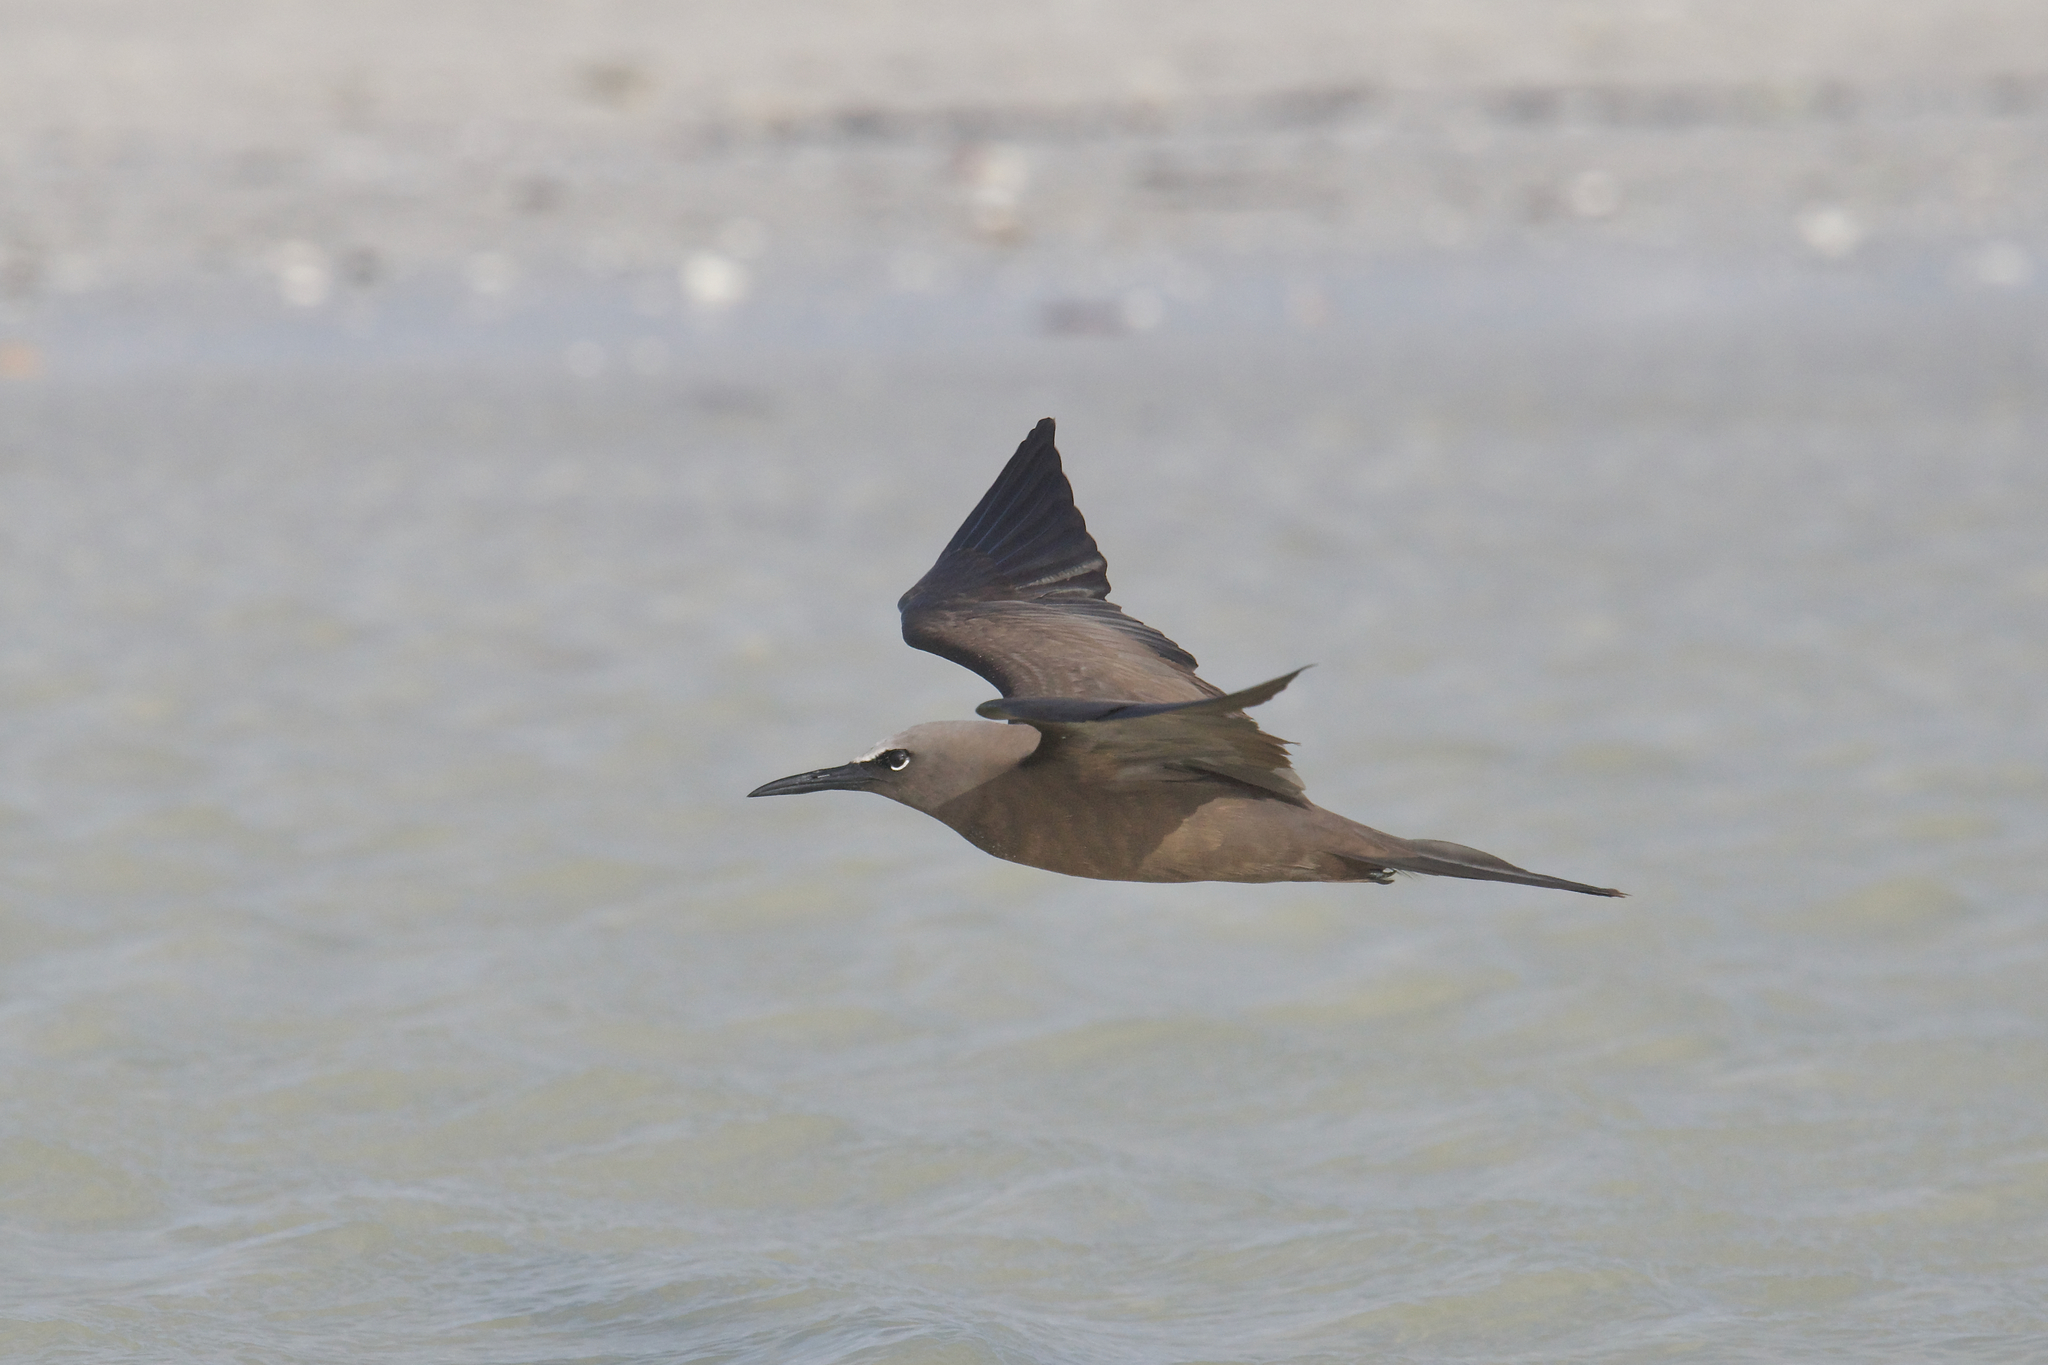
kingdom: Animalia
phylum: Chordata
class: Aves
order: Charadriiformes
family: Laridae
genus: Anous
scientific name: Anous stolidus
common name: Brown noddy
